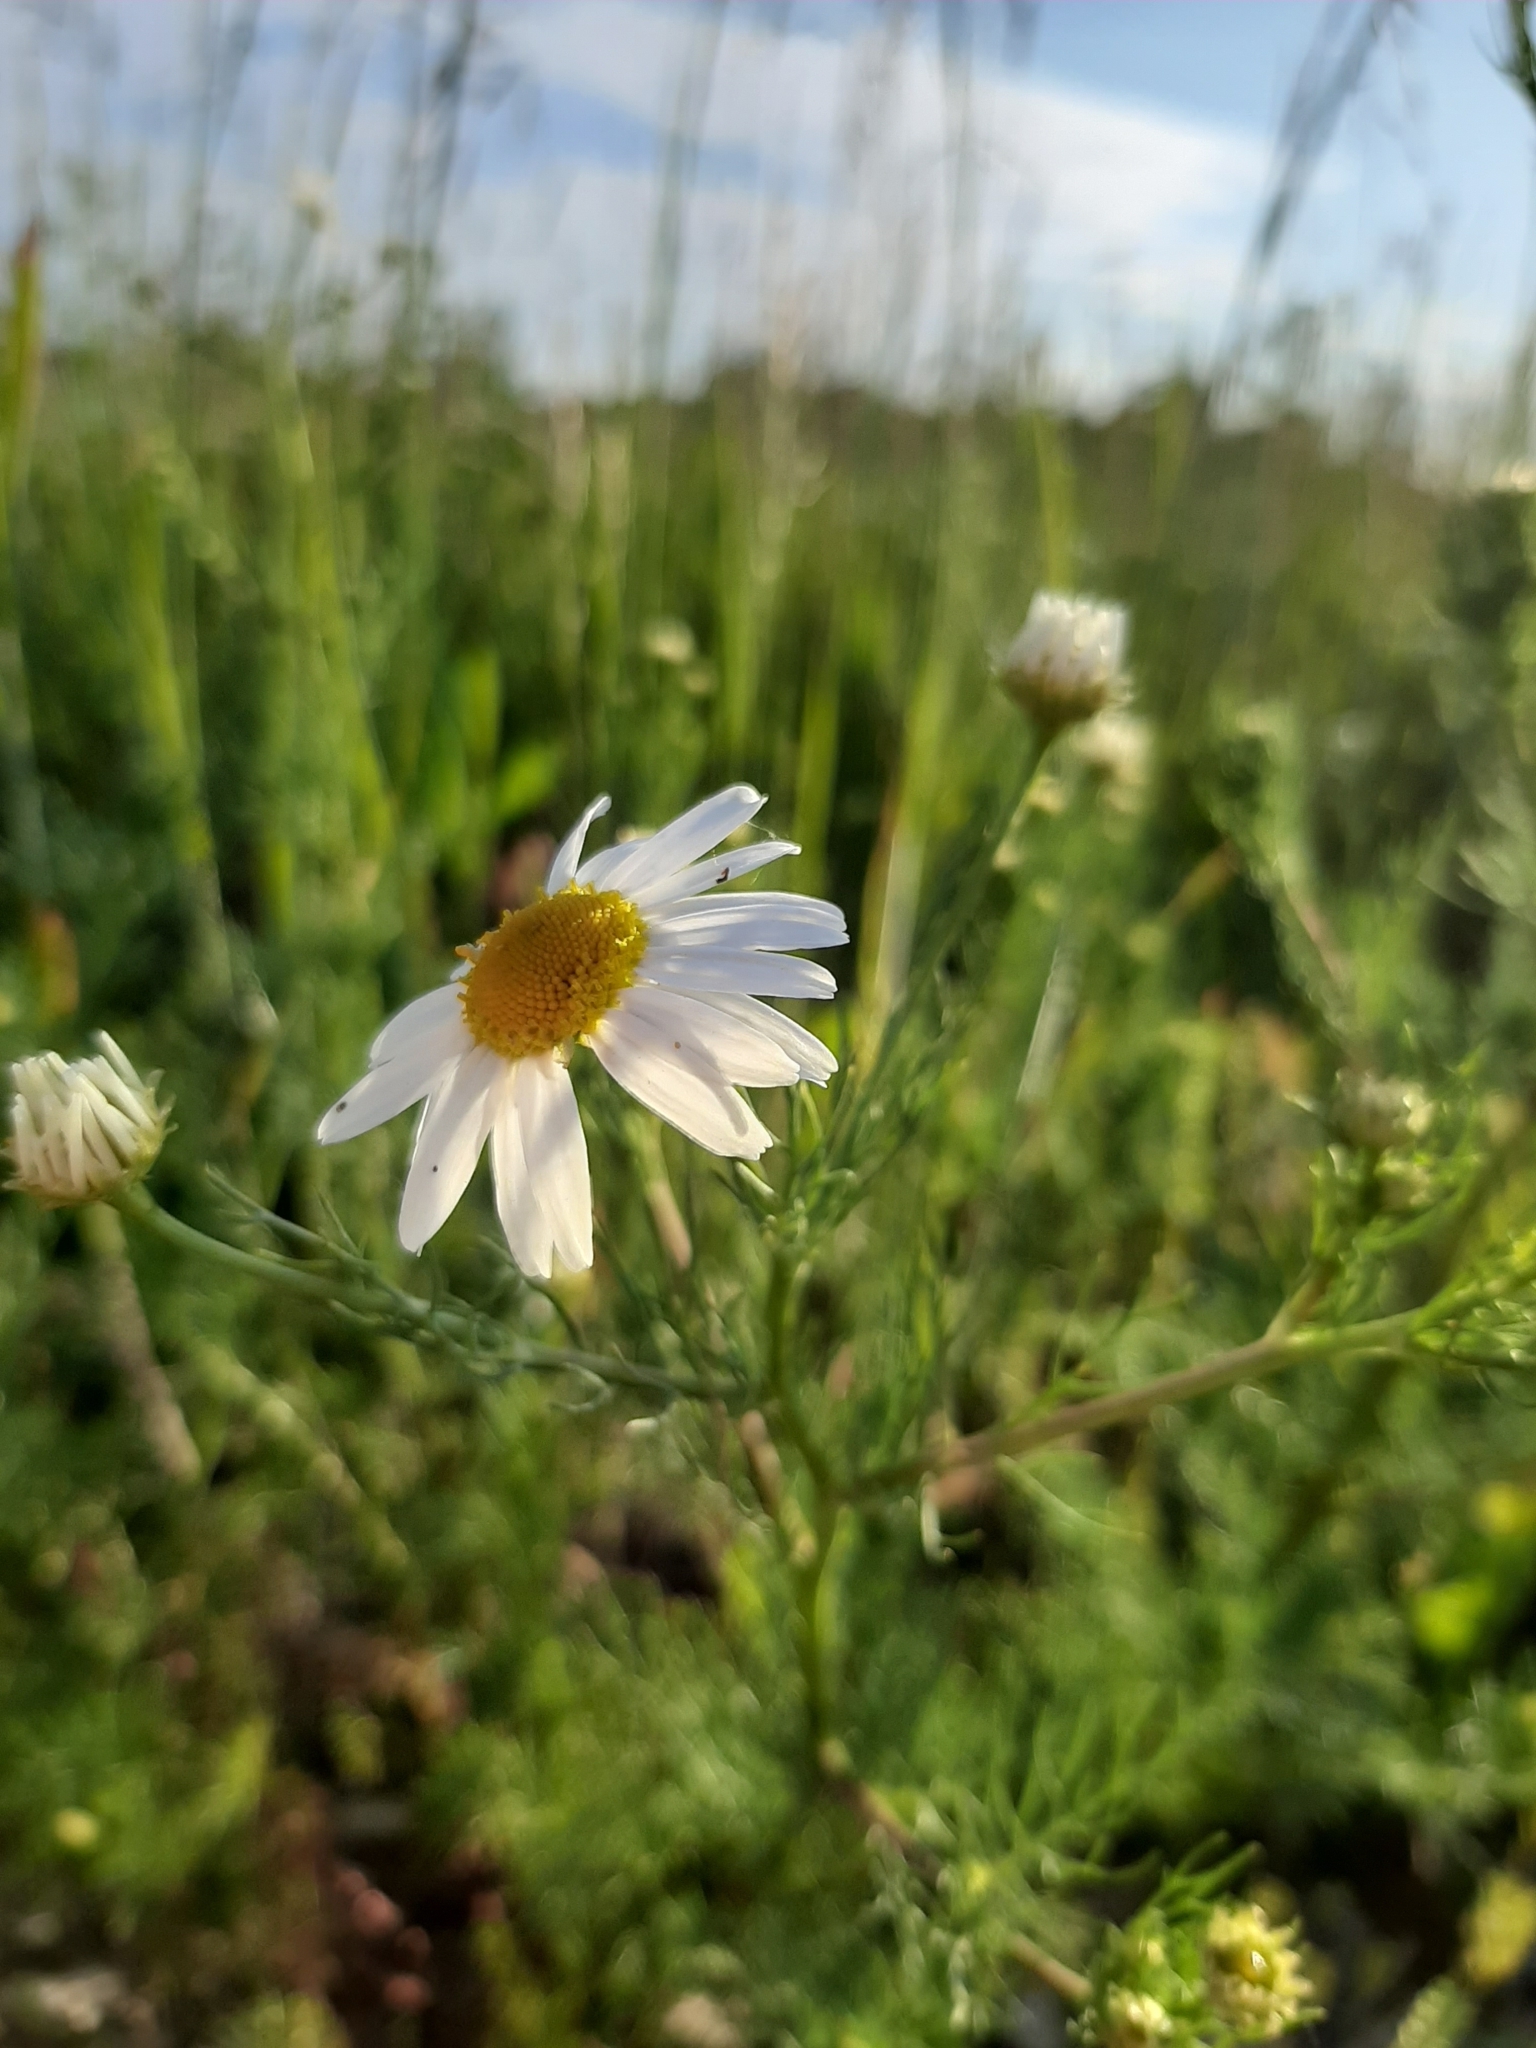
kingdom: Plantae
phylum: Tracheophyta
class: Magnoliopsida
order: Asterales
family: Asteraceae
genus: Tripleurospermum
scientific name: Tripleurospermum inodorum
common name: Scentless mayweed
